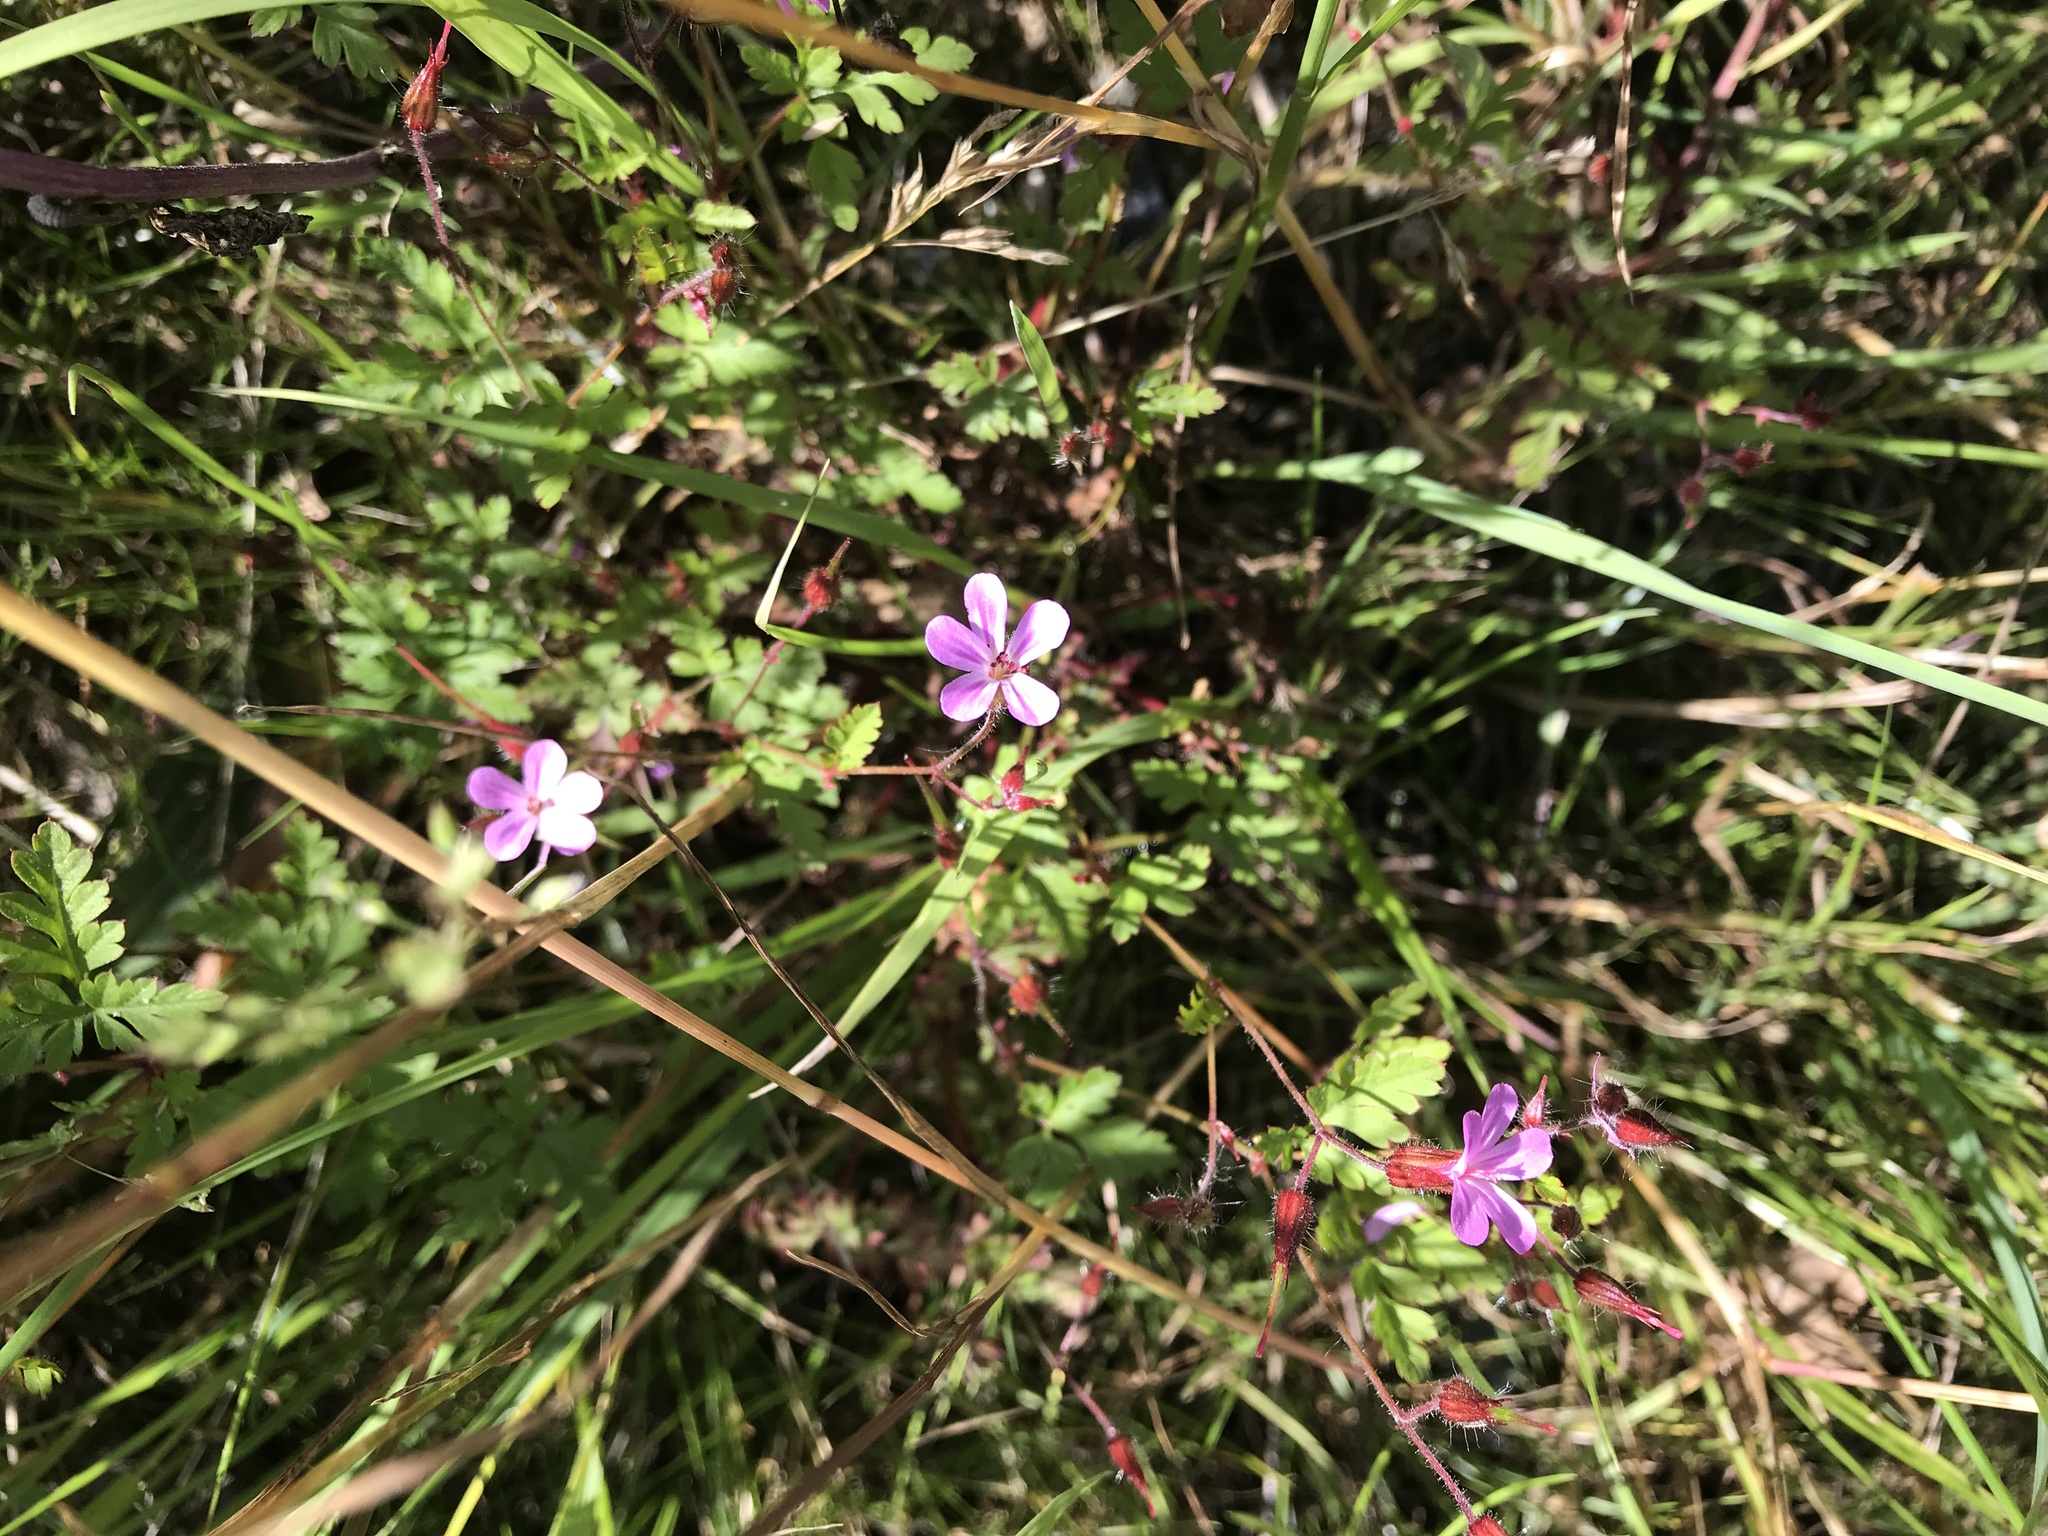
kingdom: Plantae
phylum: Tracheophyta
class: Magnoliopsida
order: Geraniales
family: Geraniaceae
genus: Geranium
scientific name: Geranium robertianum
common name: Herb-robert
